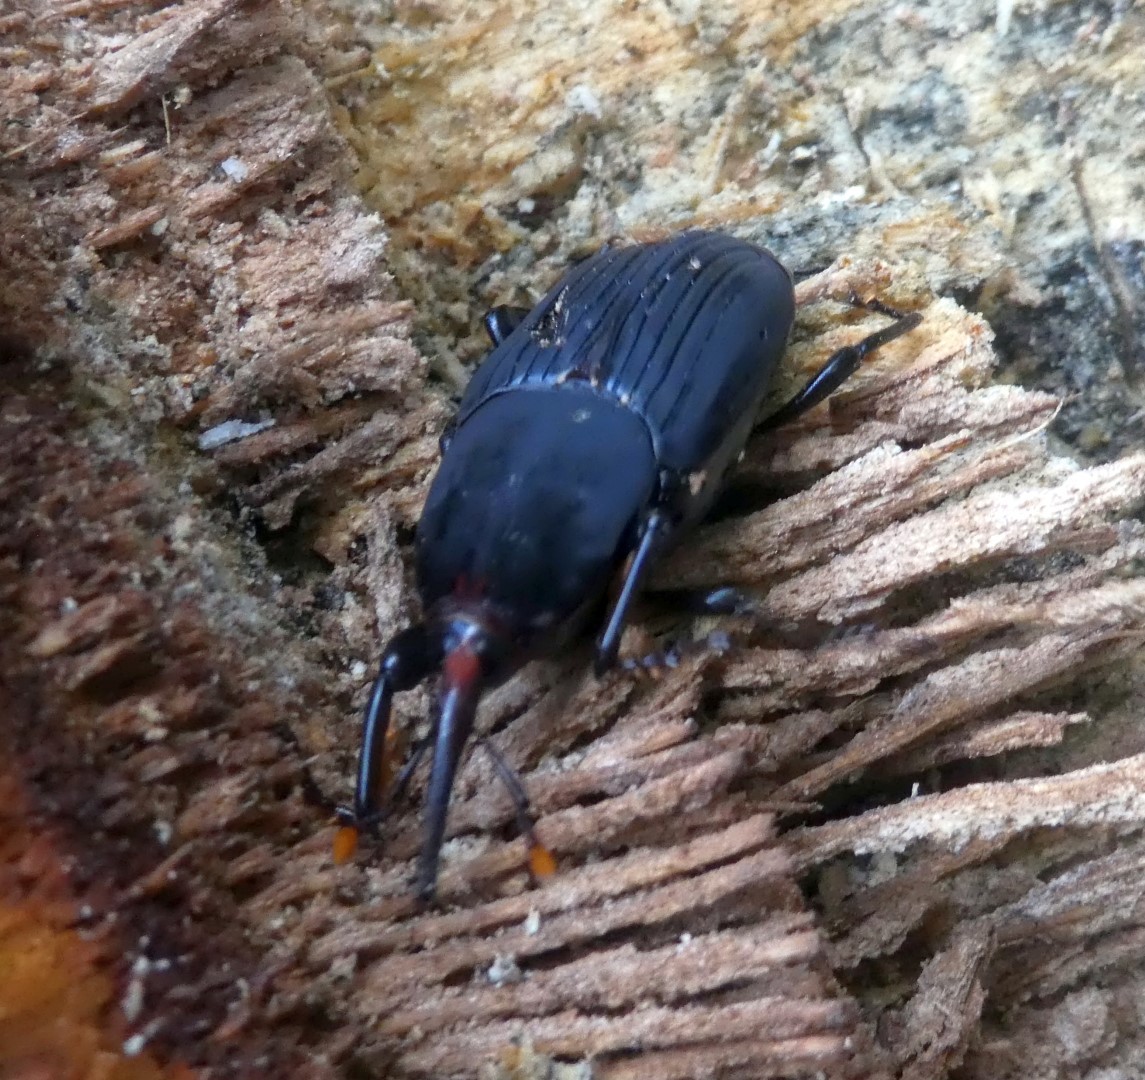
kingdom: Animalia
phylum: Arthropoda
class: Insecta
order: Coleoptera
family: Dryophthoridae
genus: Rhynchophorus
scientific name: Rhynchophorus bilineatus
